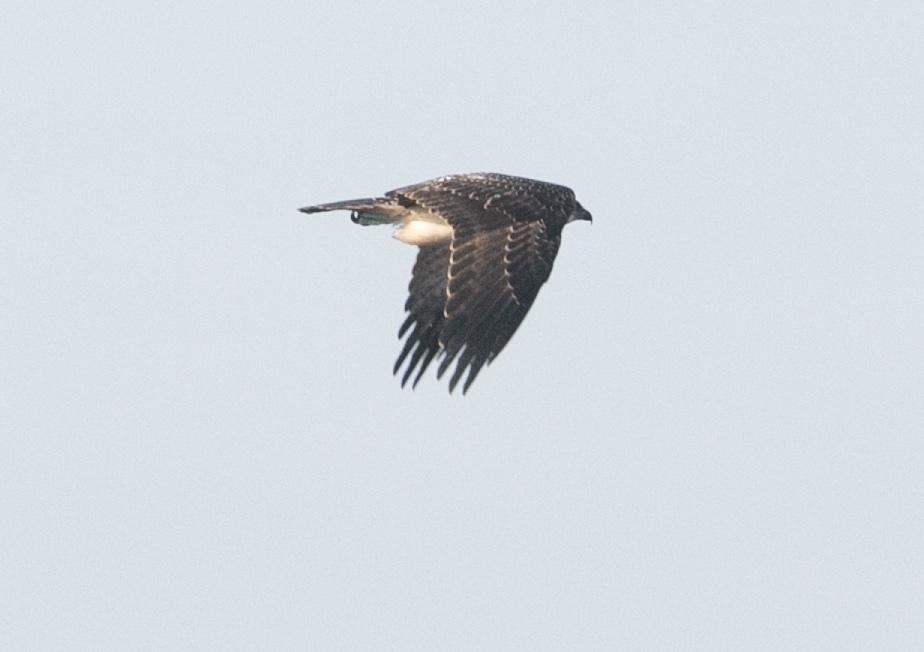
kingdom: Animalia
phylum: Chordata
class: Aves
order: Accipitriformes
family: Pandionidae
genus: Pandion
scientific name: Pandion haliaetus
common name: Osprey
